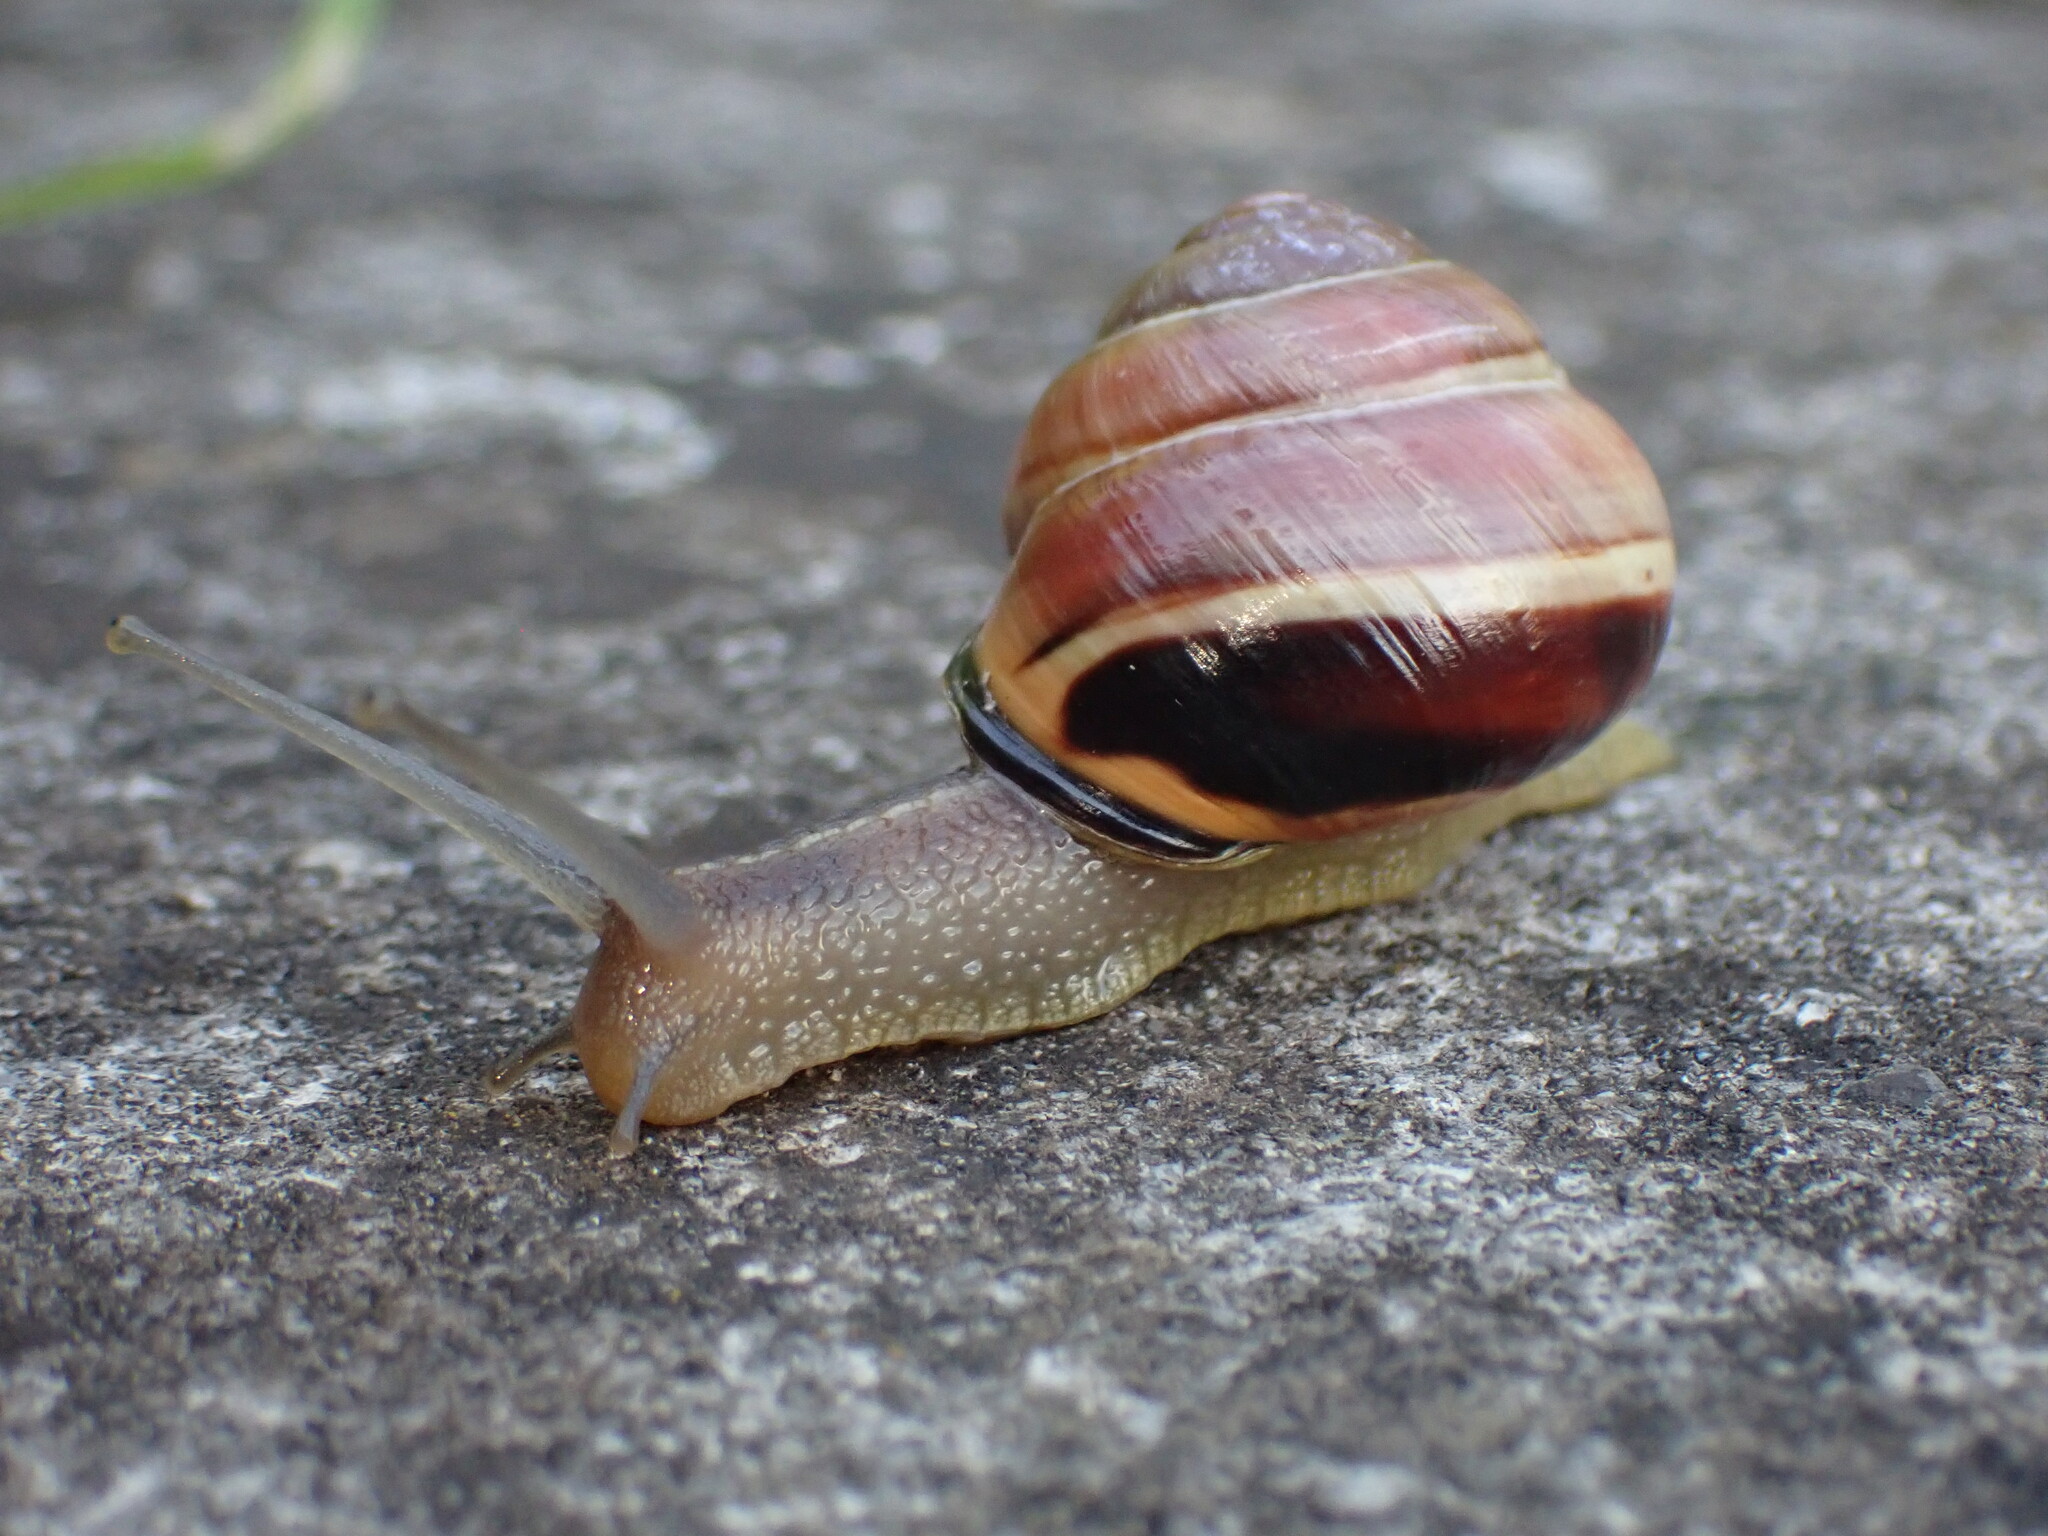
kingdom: Animalia
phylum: Mollusca
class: Gastropoda
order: Stylommatophora
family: Helicidae
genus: Cepaea
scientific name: Cepaea nemoralis
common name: Grovesnail
